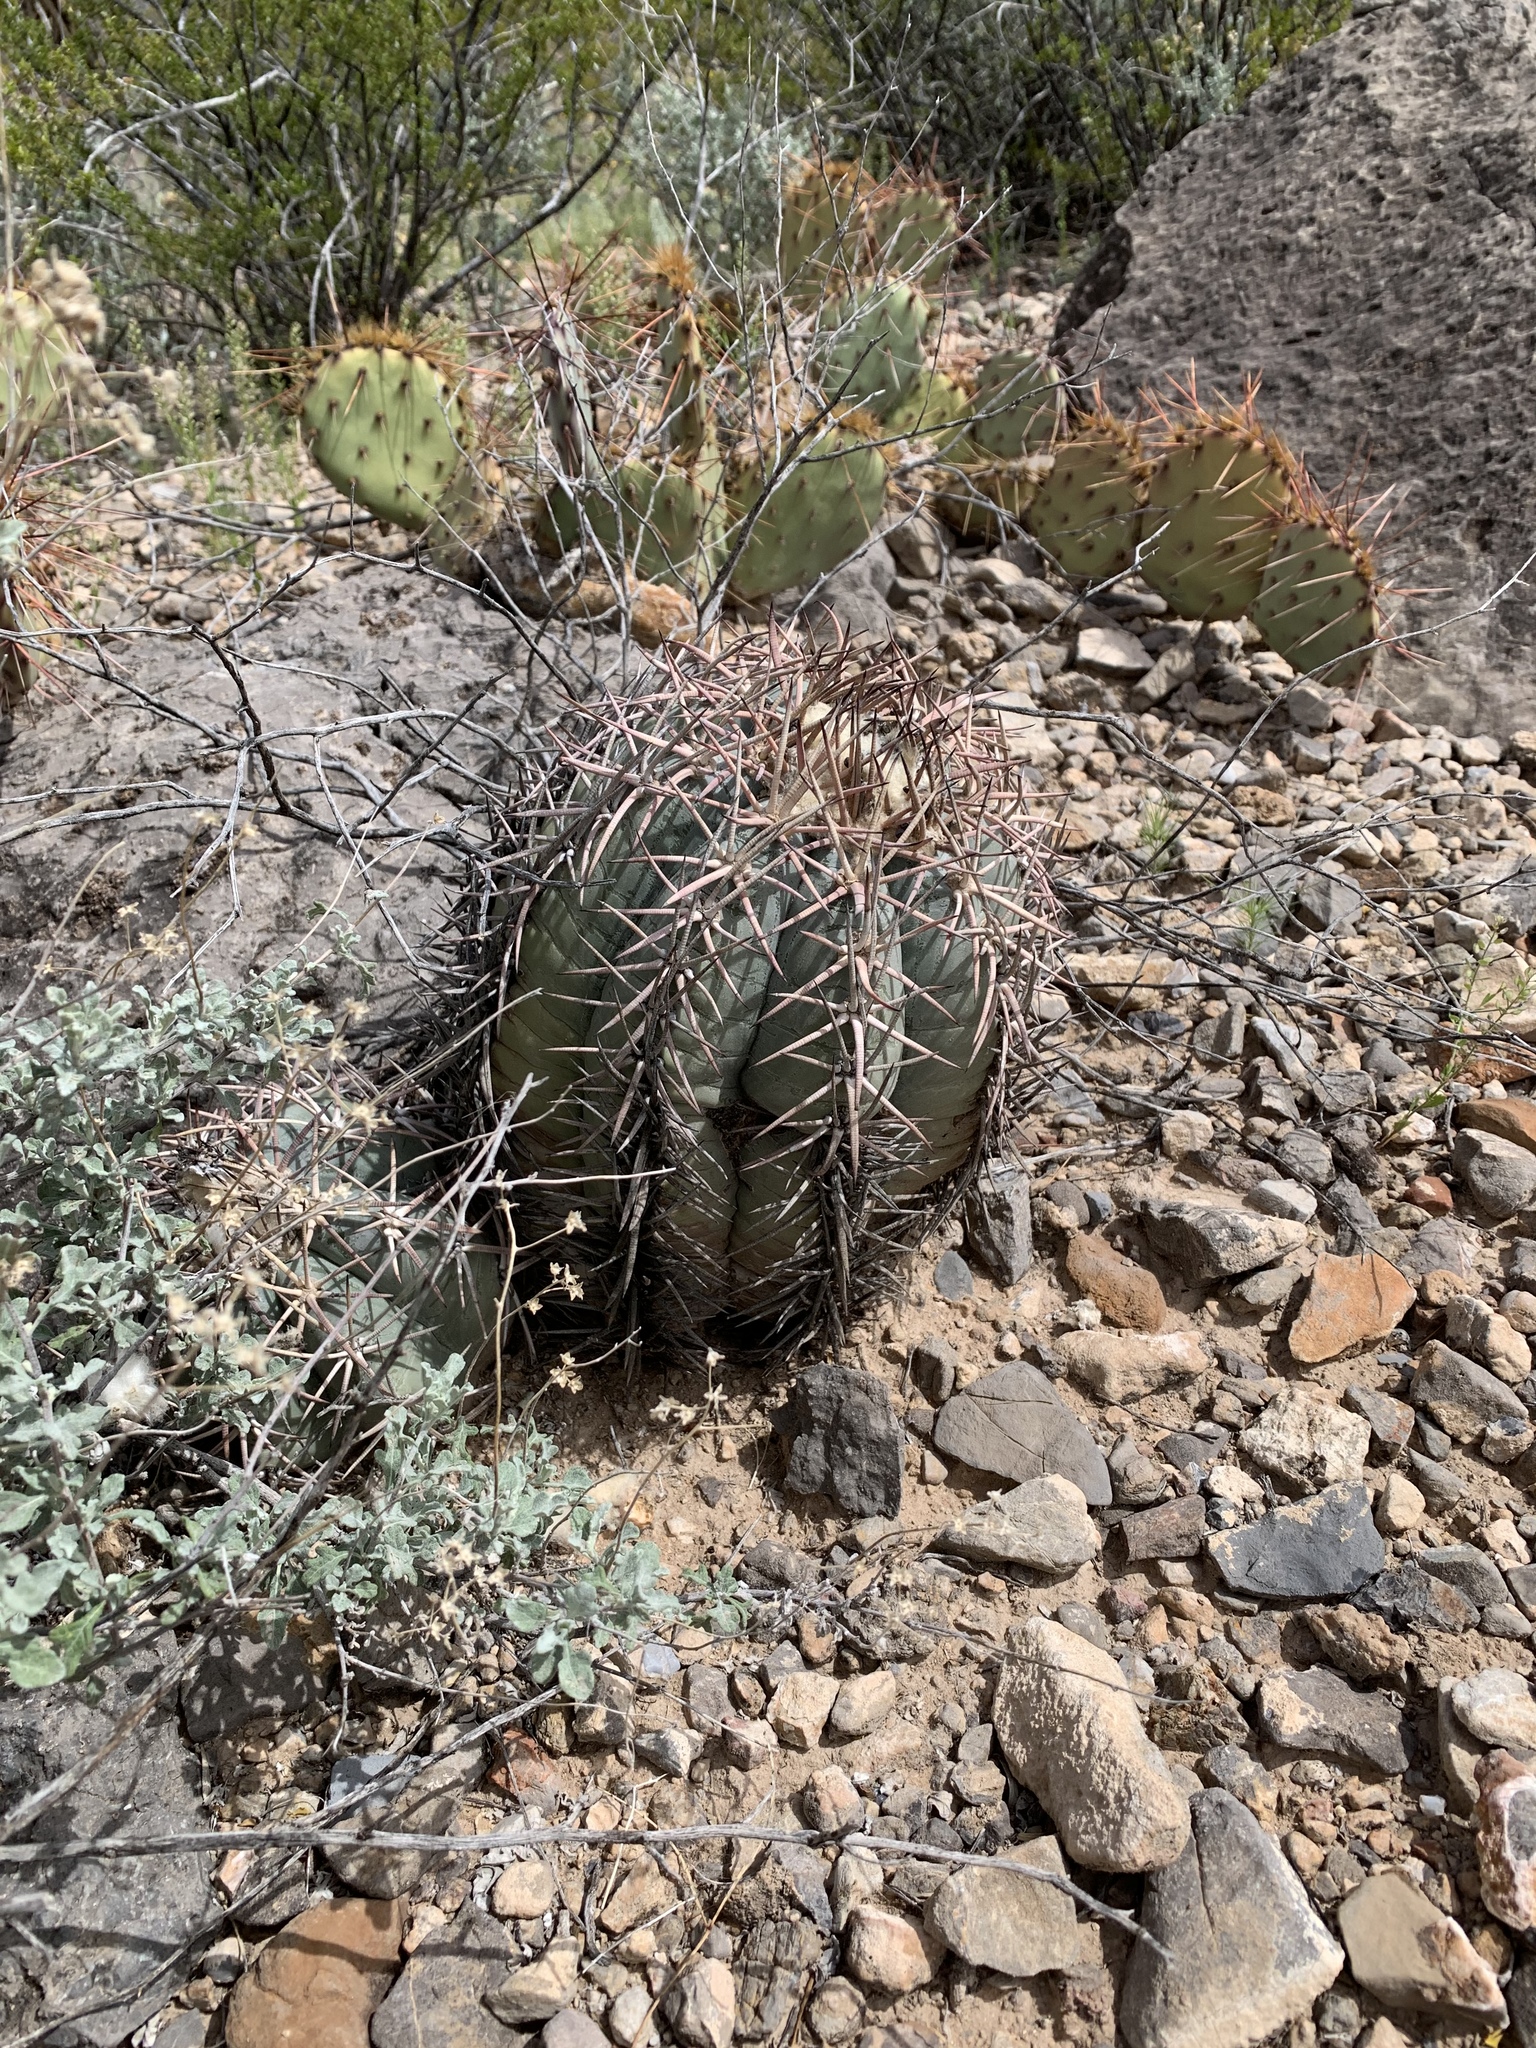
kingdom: Plantae
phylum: Tracheophyta
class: Magnoliopsida
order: Caryophyllales
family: Cactaceae
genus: Echinocactus
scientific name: Echinocactus horizonthalonius
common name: Devilshead
